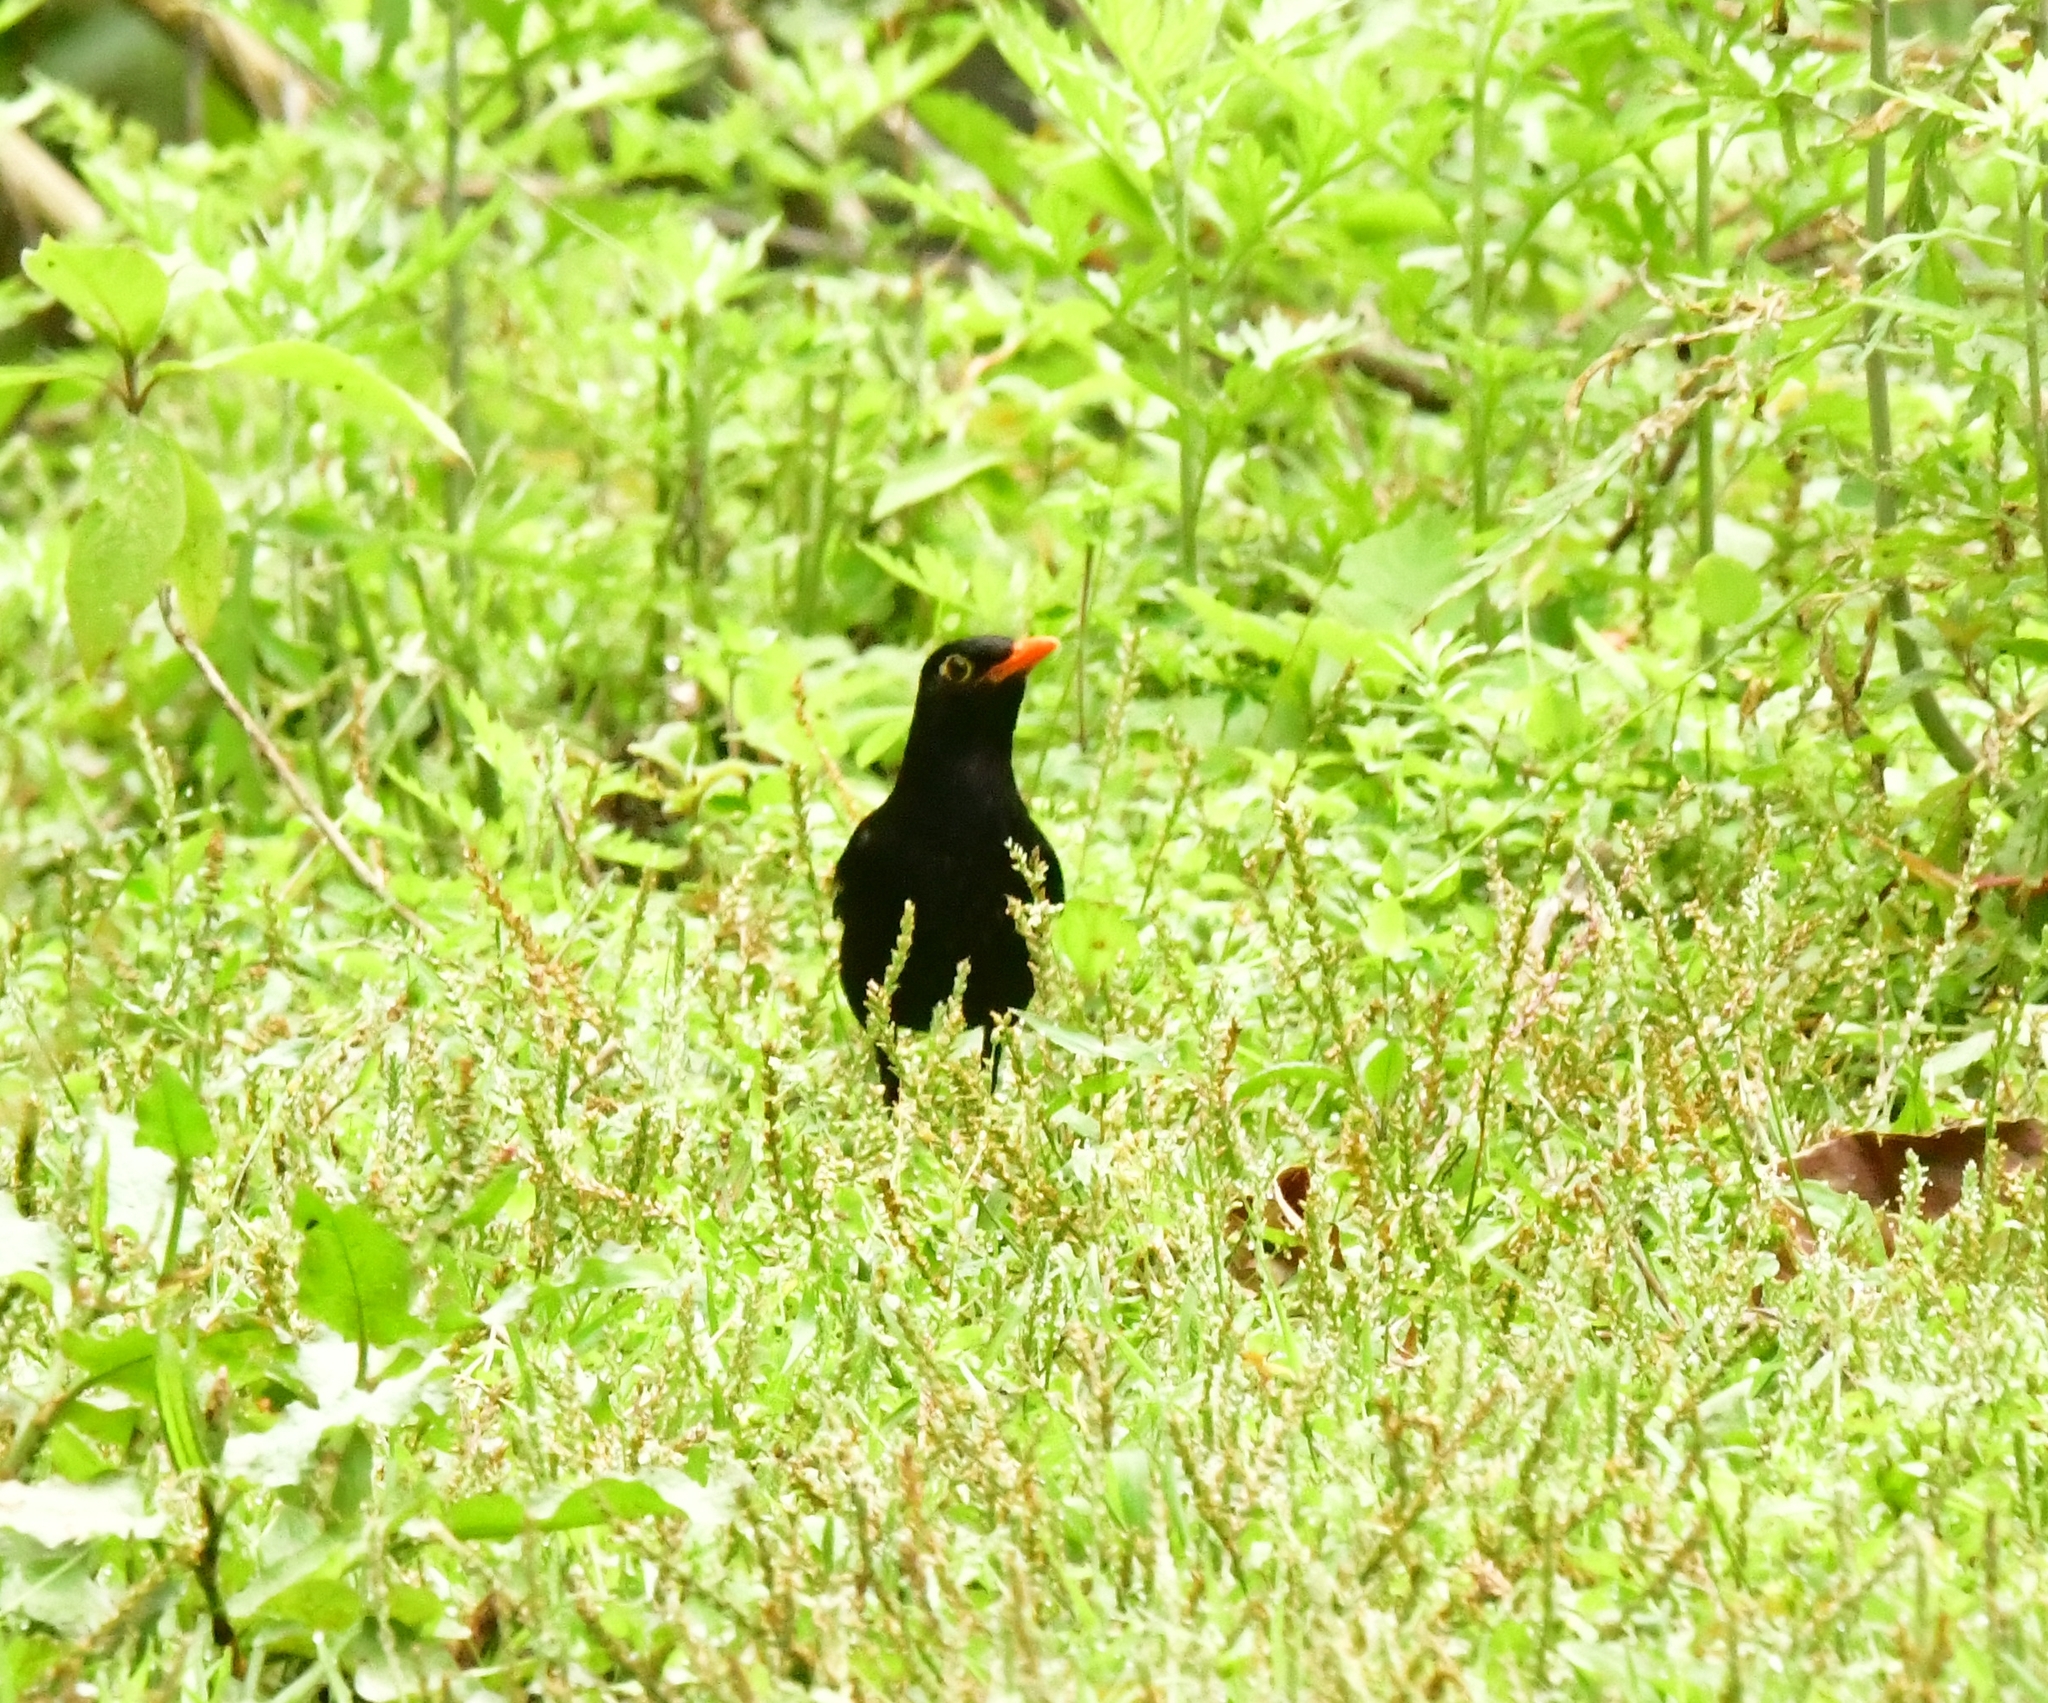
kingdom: Animalia
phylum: Chordata
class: Aves
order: Passeriformes
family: Turdidae
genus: Turdus
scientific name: Turdus boulboul
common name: Grey-winged blackbird
